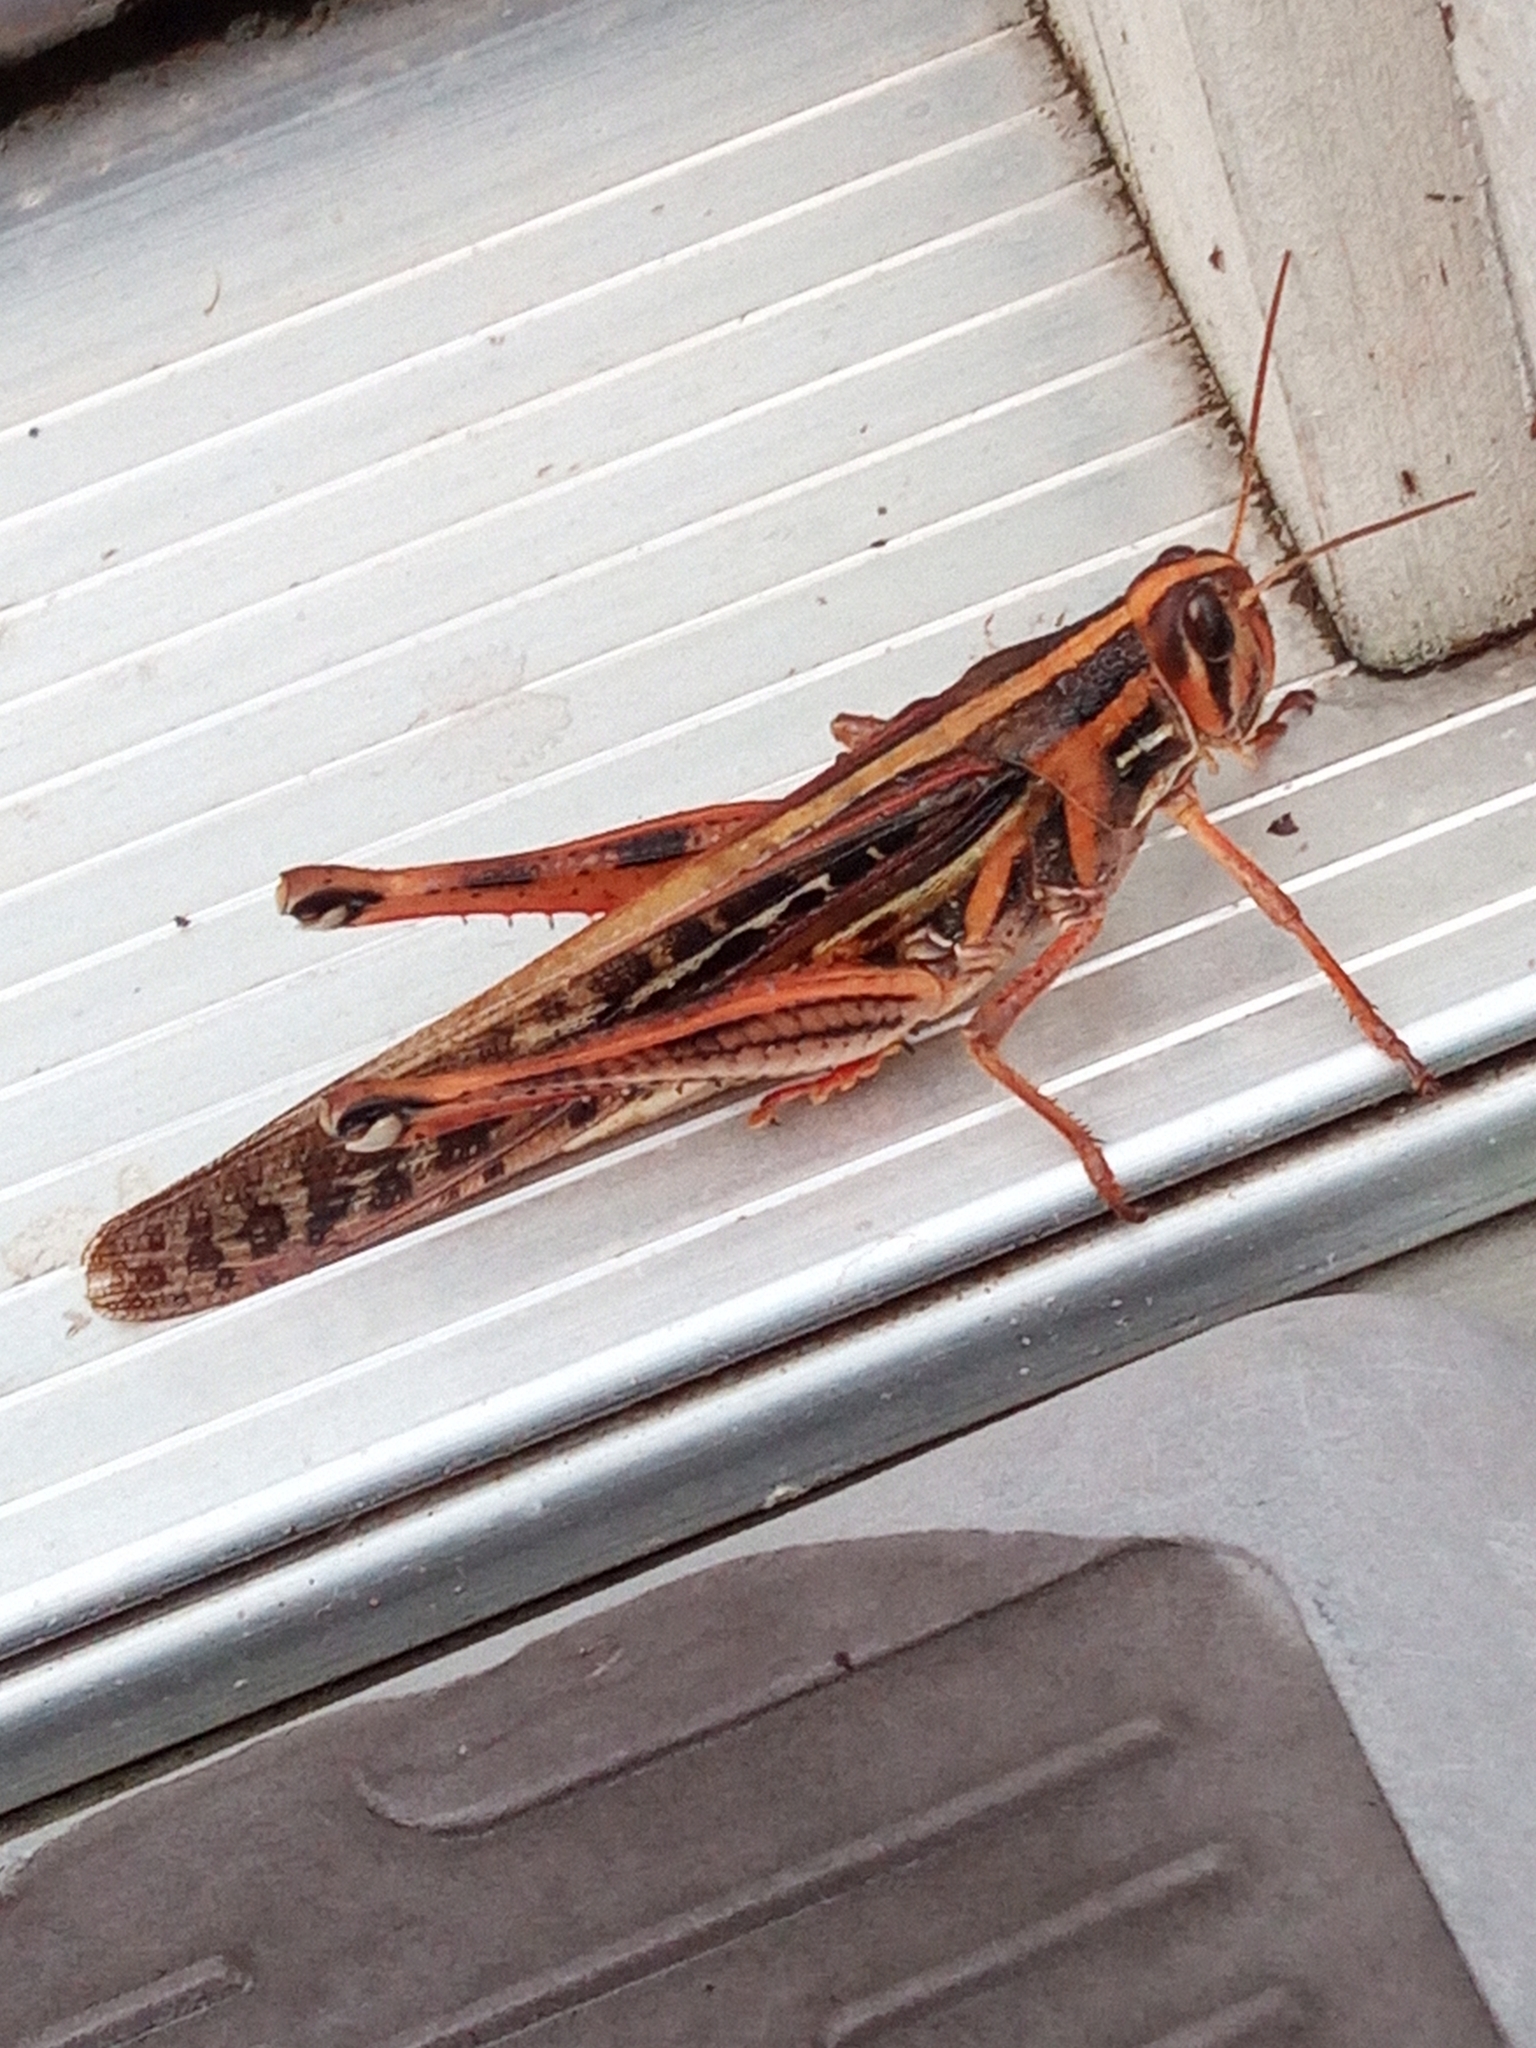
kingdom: Animalia
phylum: Arthropoda
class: Insecta
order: Orthoptera
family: Acrididae
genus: Schistocerca
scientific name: Schistocerca americana
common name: American bird locust
